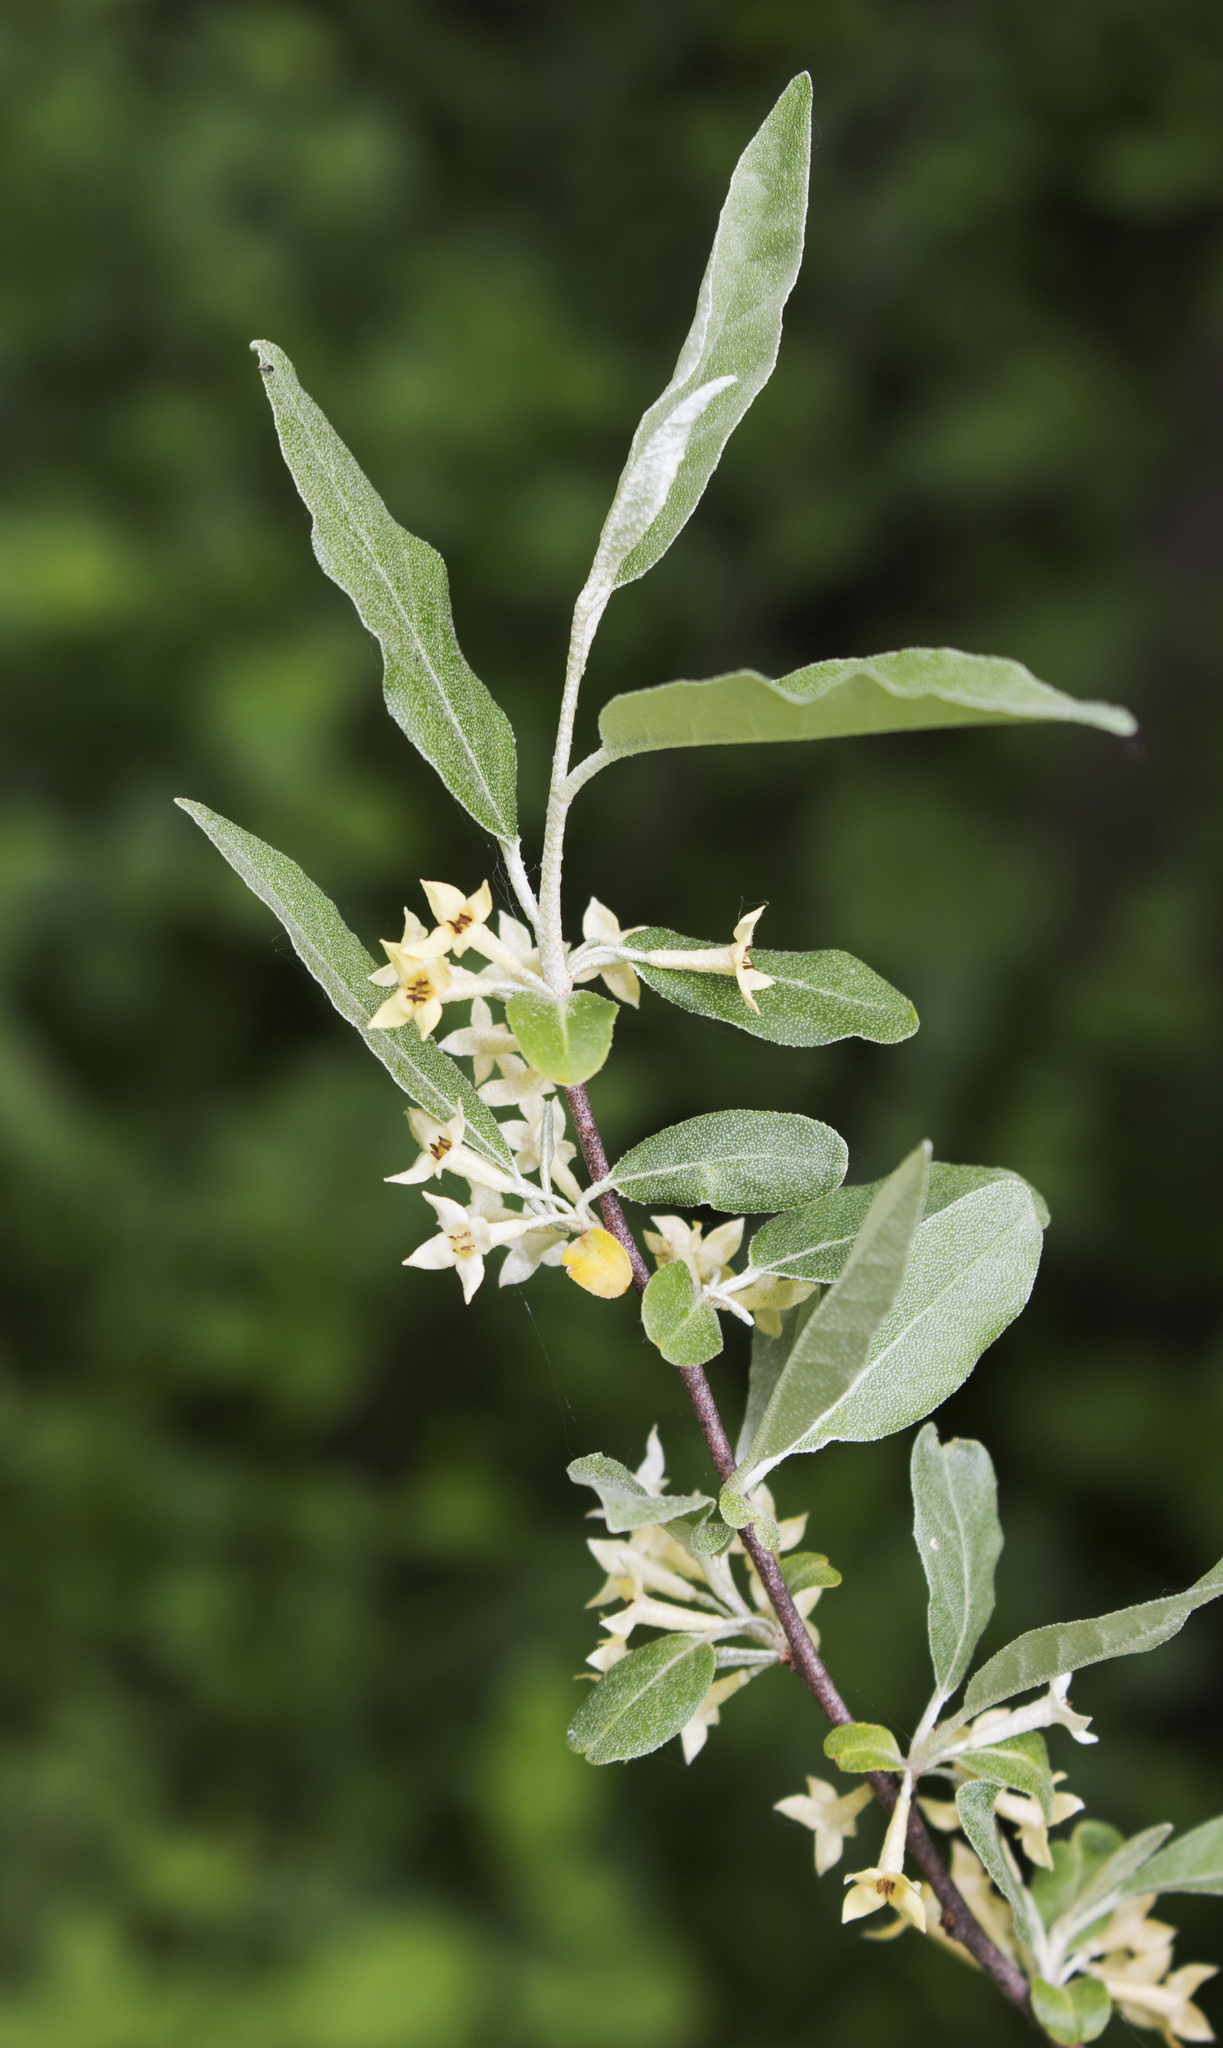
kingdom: Plantae
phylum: Tracheophyta
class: Magnoliopsida
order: Rosales
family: Elaeagnaceae
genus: Elaeagnus
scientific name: Elaeagnus umbellata
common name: Autumn olive
